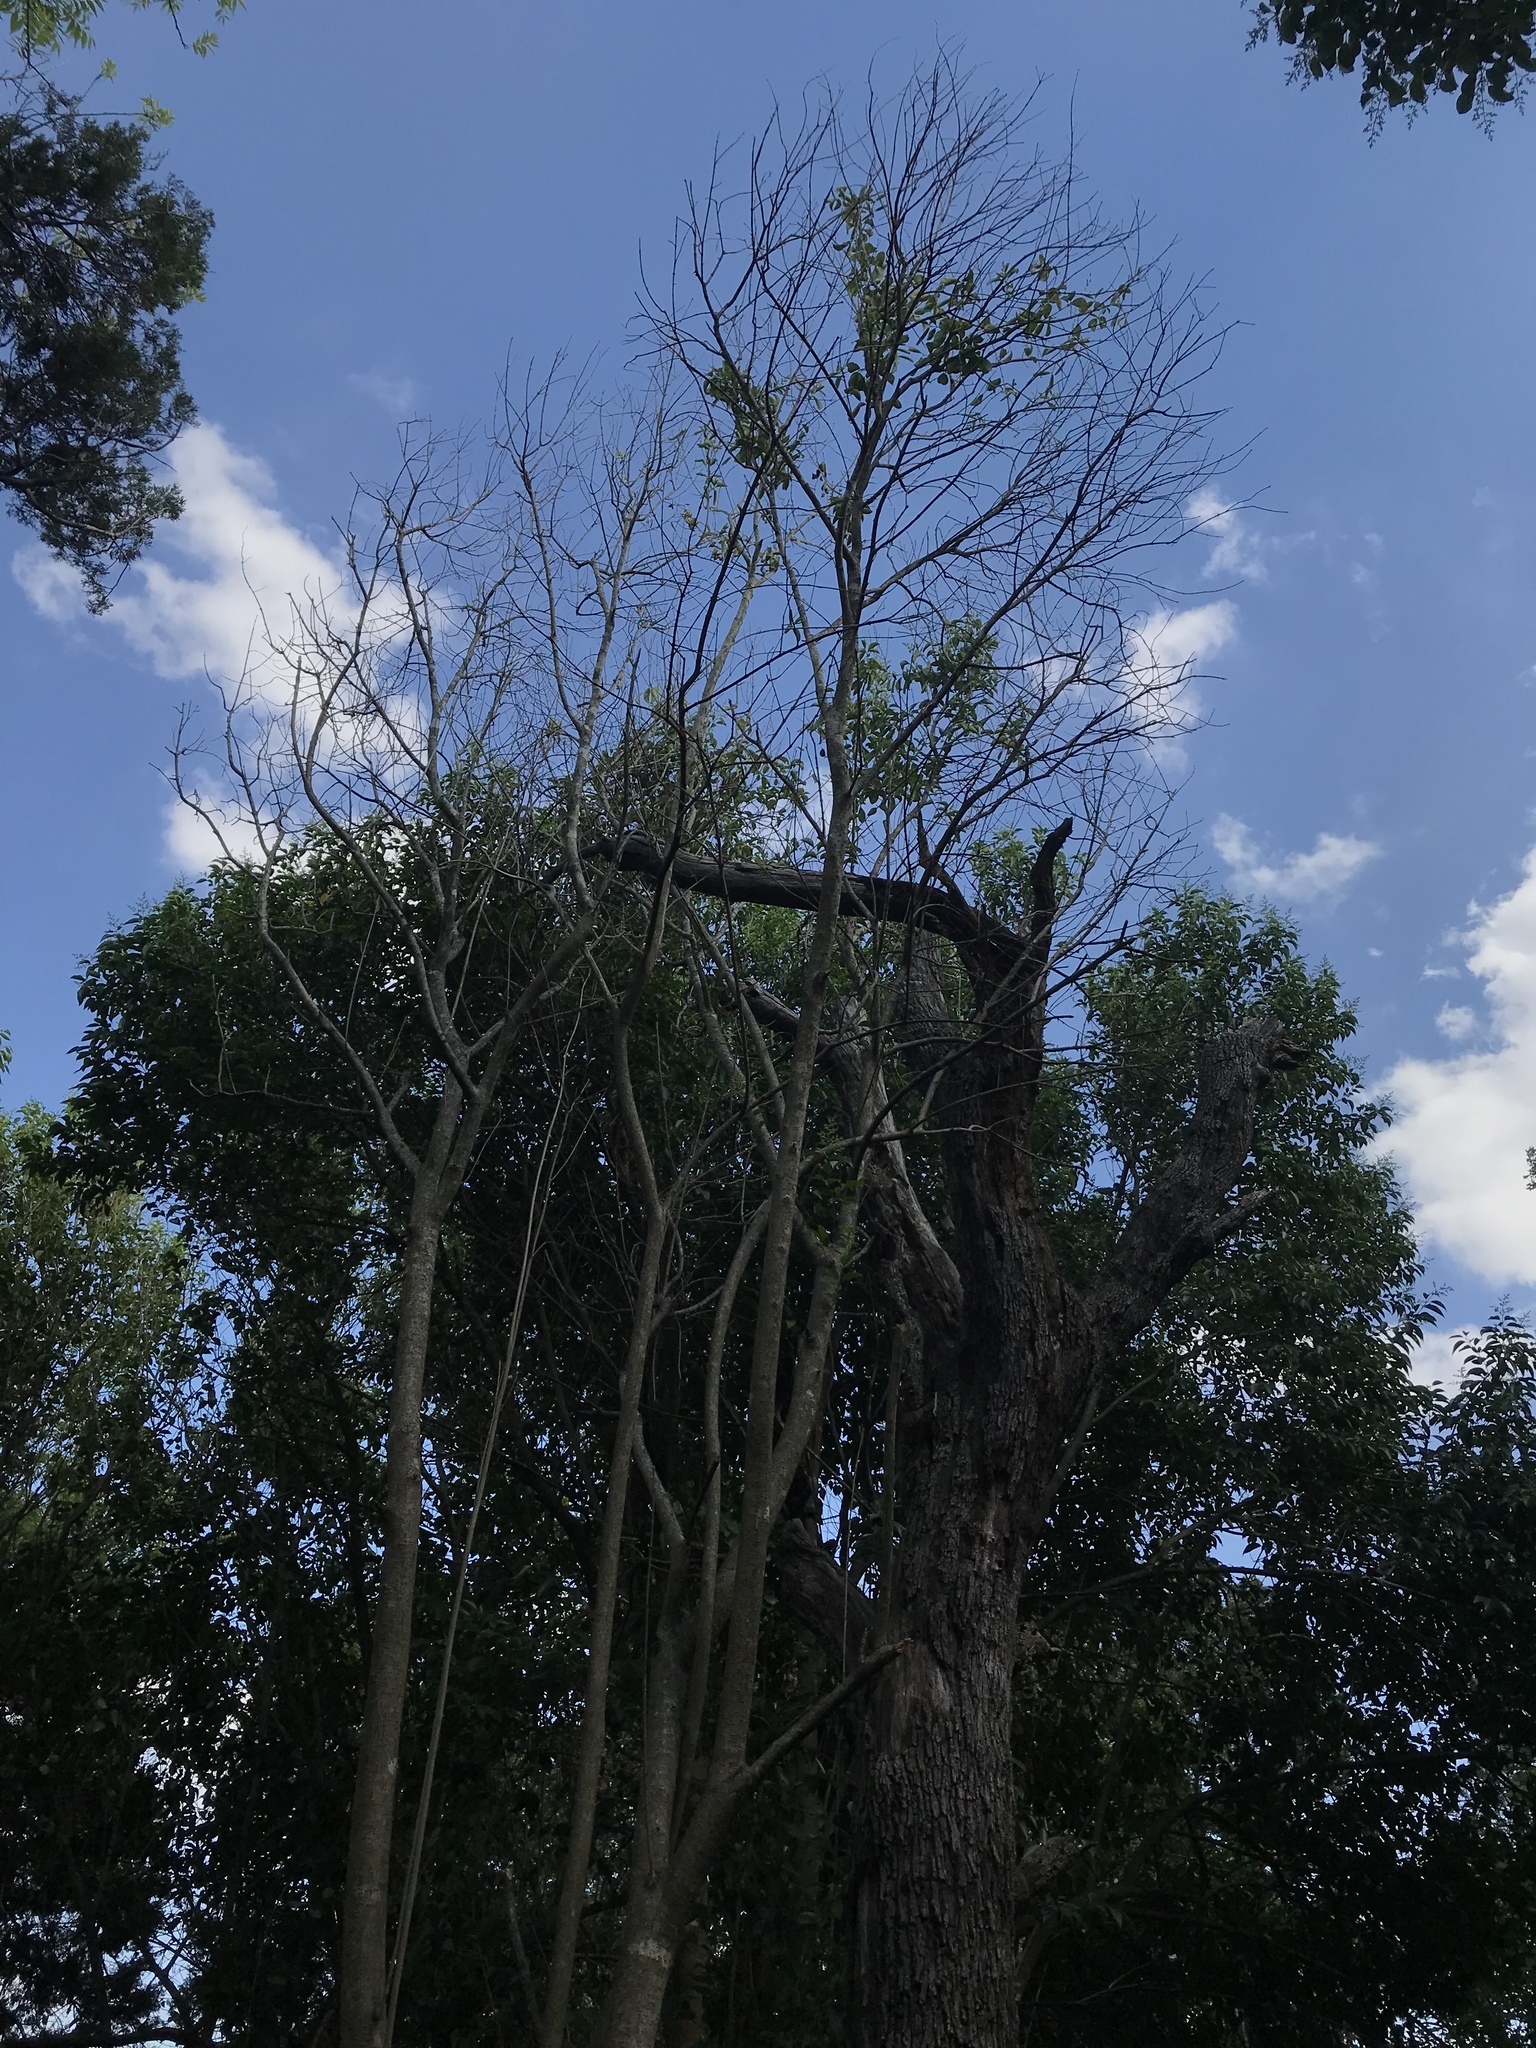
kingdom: Plantae
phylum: Tracheophyta
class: Magnoliopsida
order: Lamiales
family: Oleaceae
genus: Ligustrum
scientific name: Ligustrum lucidum
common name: Glossy privet
